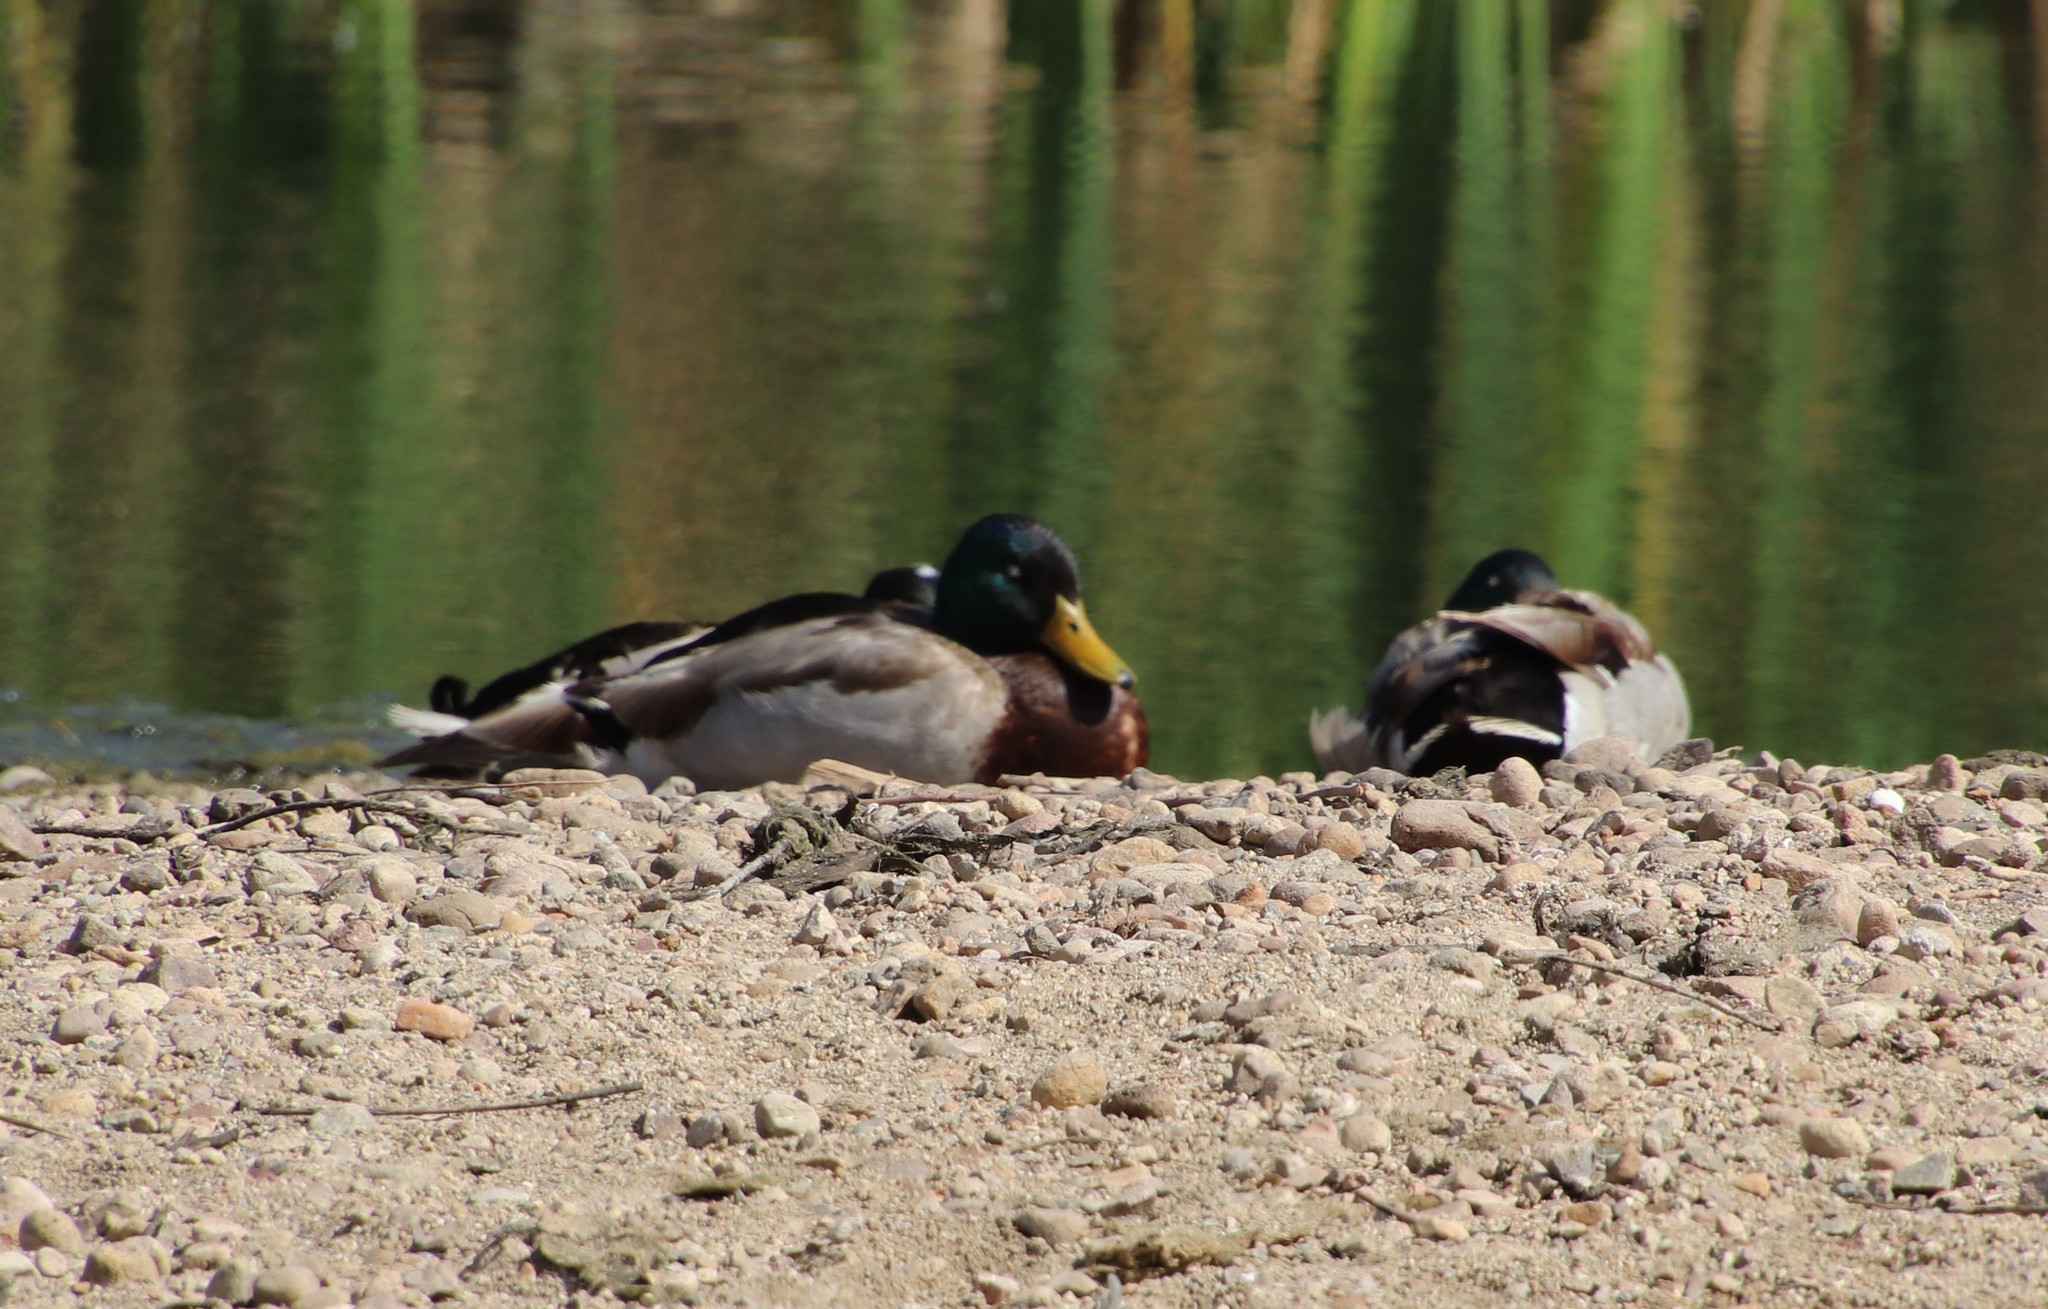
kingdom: Animalia
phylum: Chordata
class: Aves
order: Anseriformes
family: Anatidae
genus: Anas
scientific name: Anas platyrhynchos
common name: Mallard
